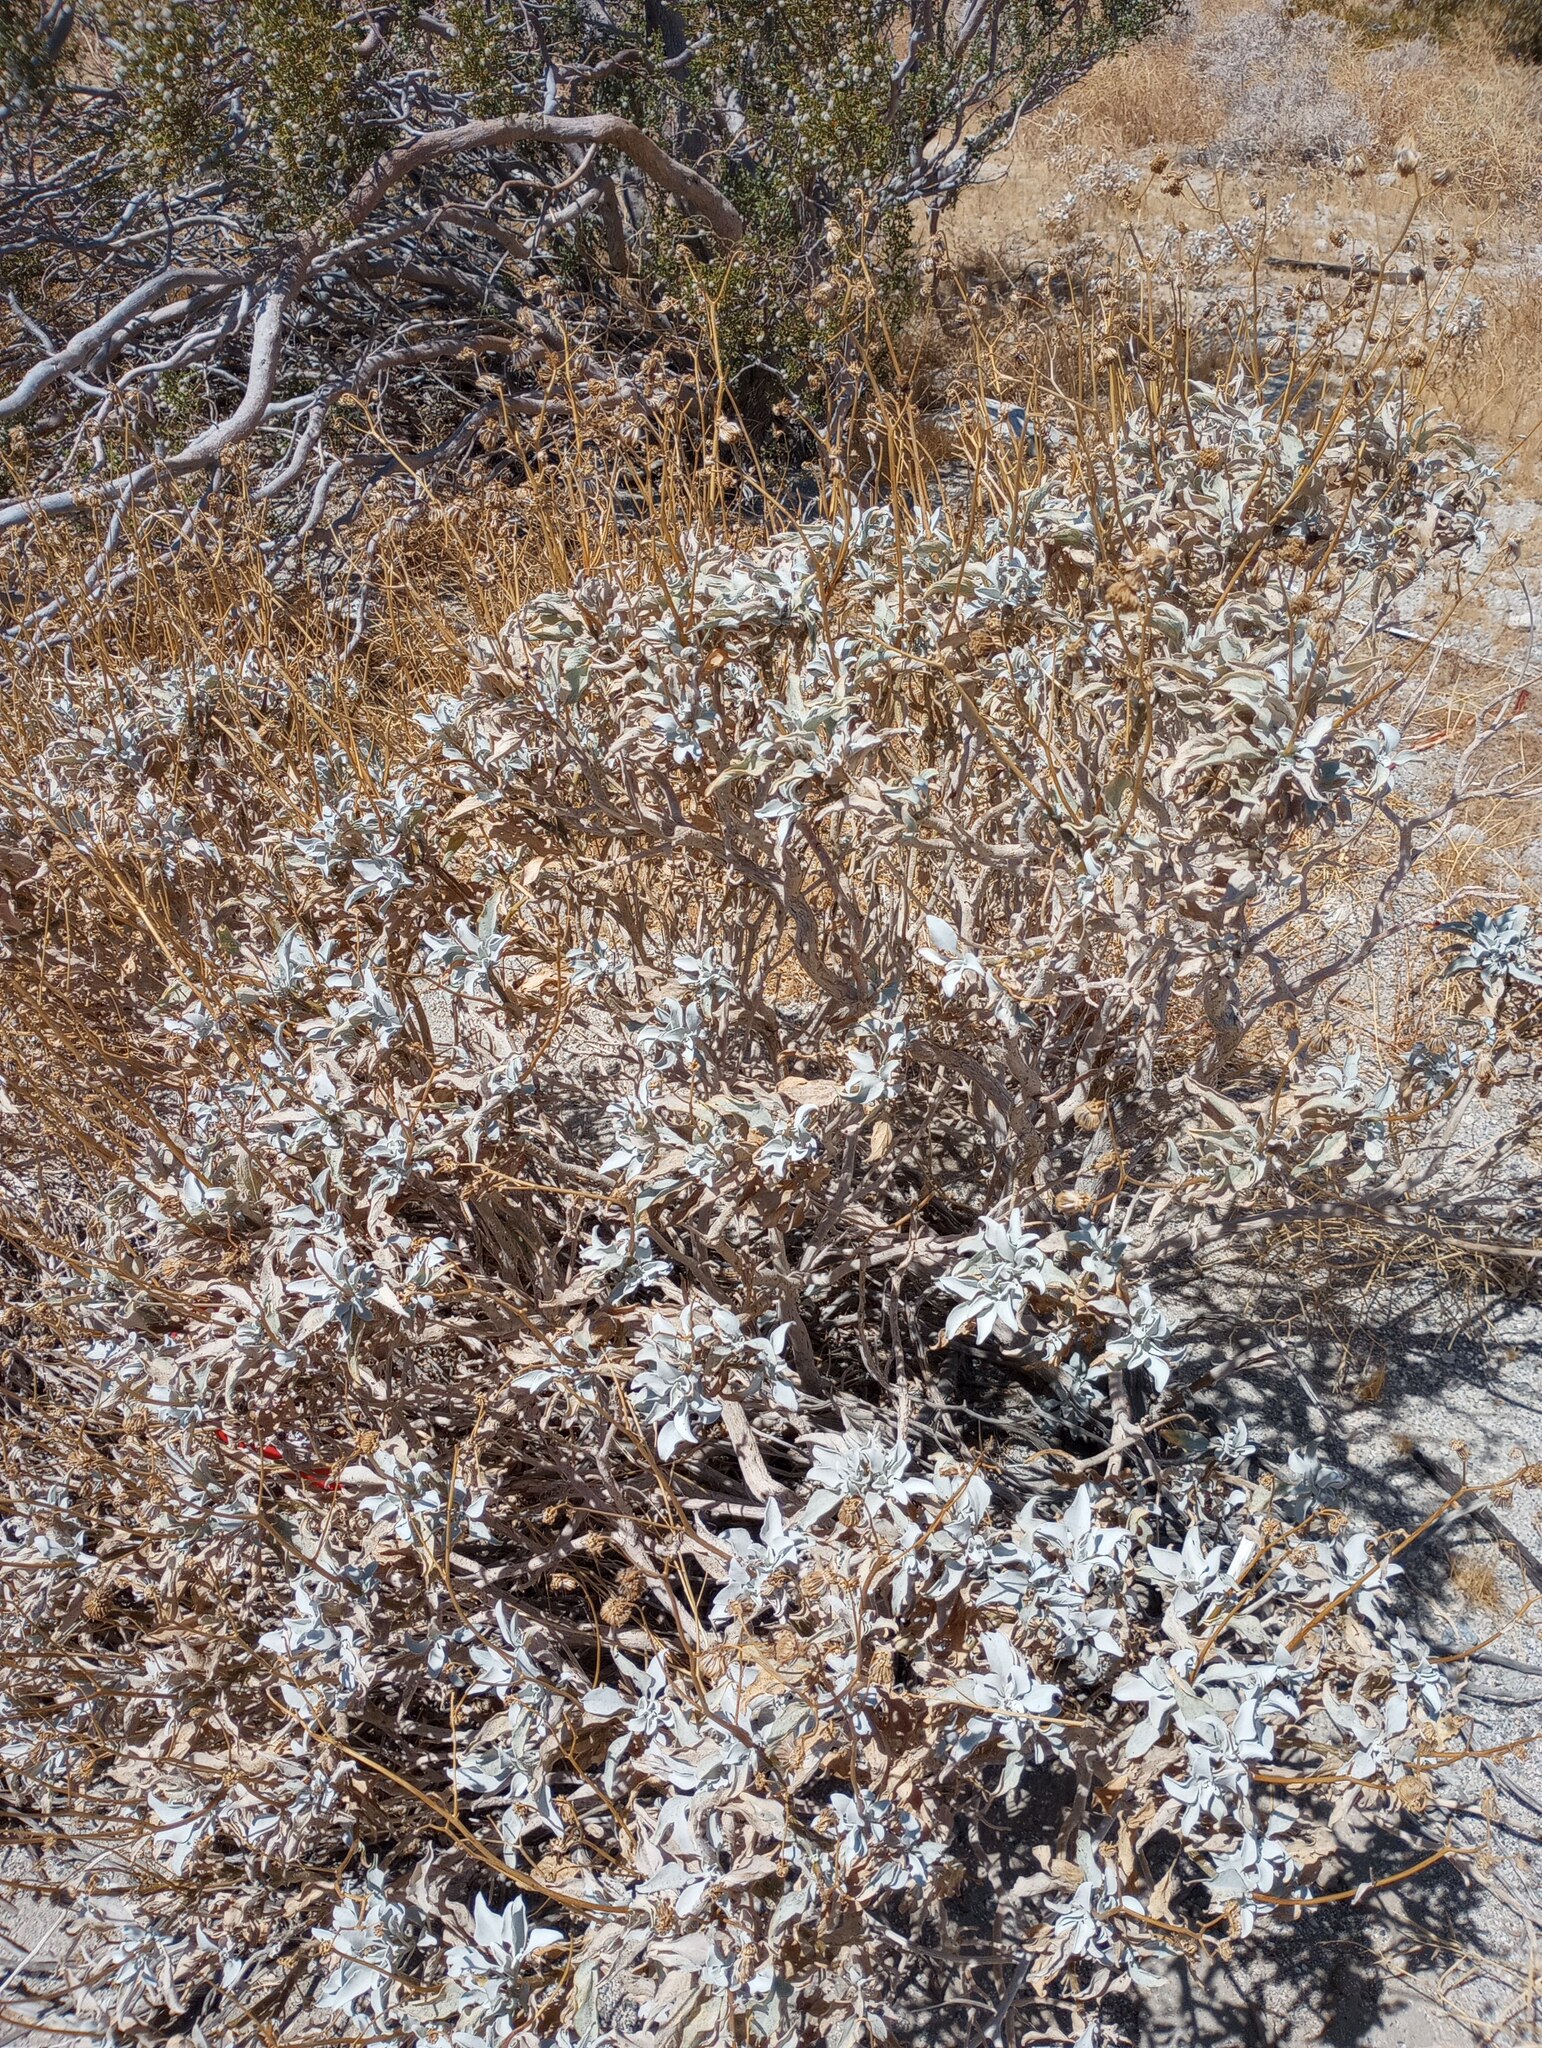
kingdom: Plantae
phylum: Tracheophyta
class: Magnoliopsida
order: Asterales
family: Asteraceae
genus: Encelia
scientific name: Encelia farinosa
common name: Brittlebush
